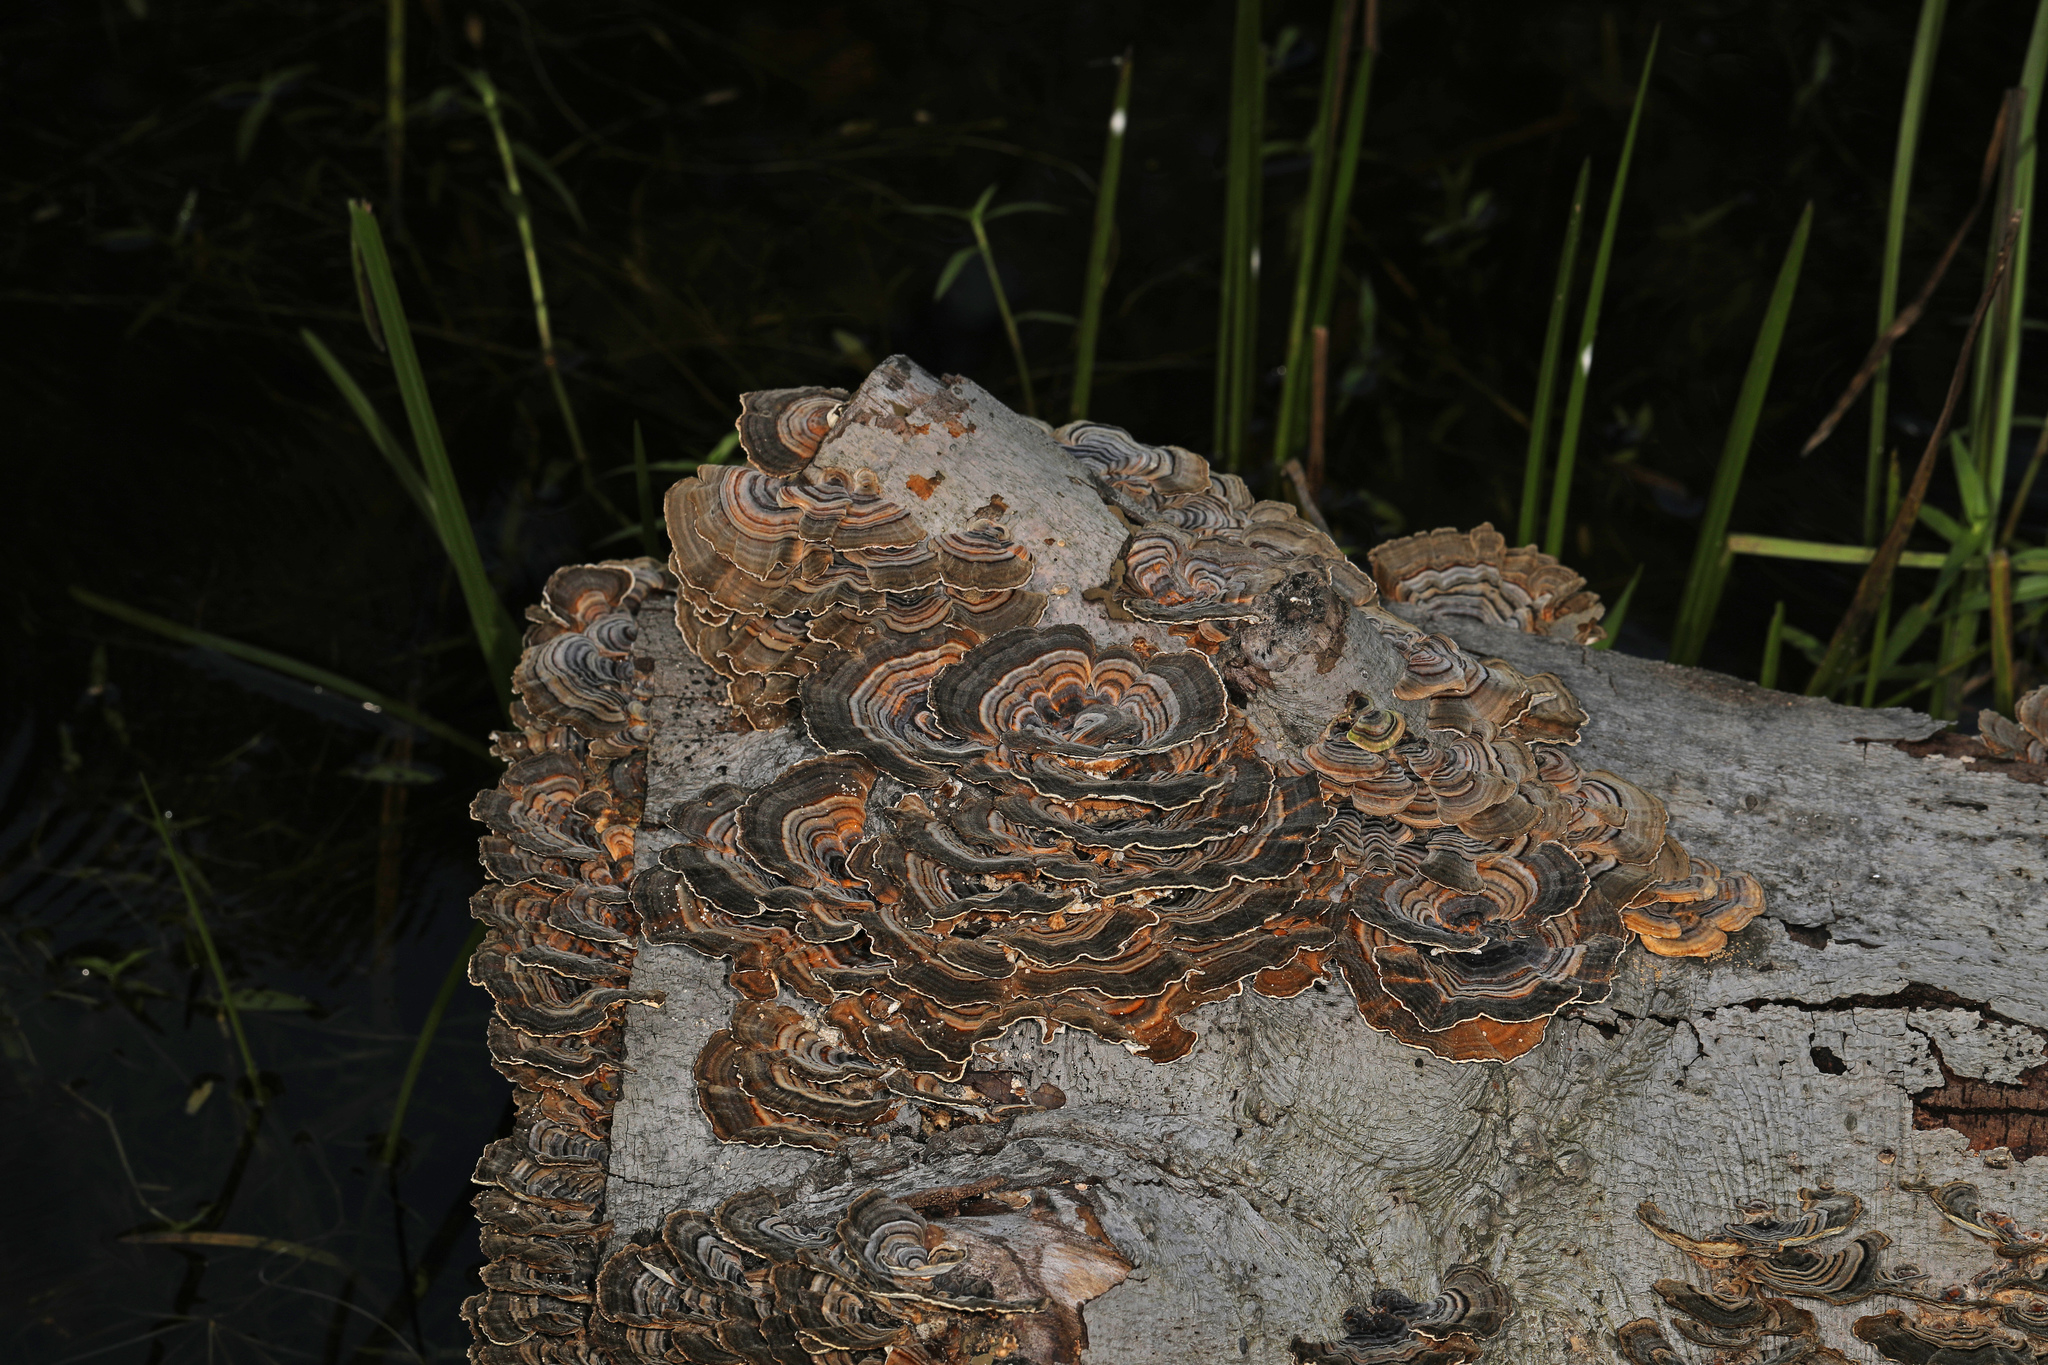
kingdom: Fungi
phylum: Basidiomycota
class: Agaricomycetes
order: Polyporales
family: Polyporaceae
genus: Trametes
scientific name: Trametes versicolor
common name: Turkeytail
